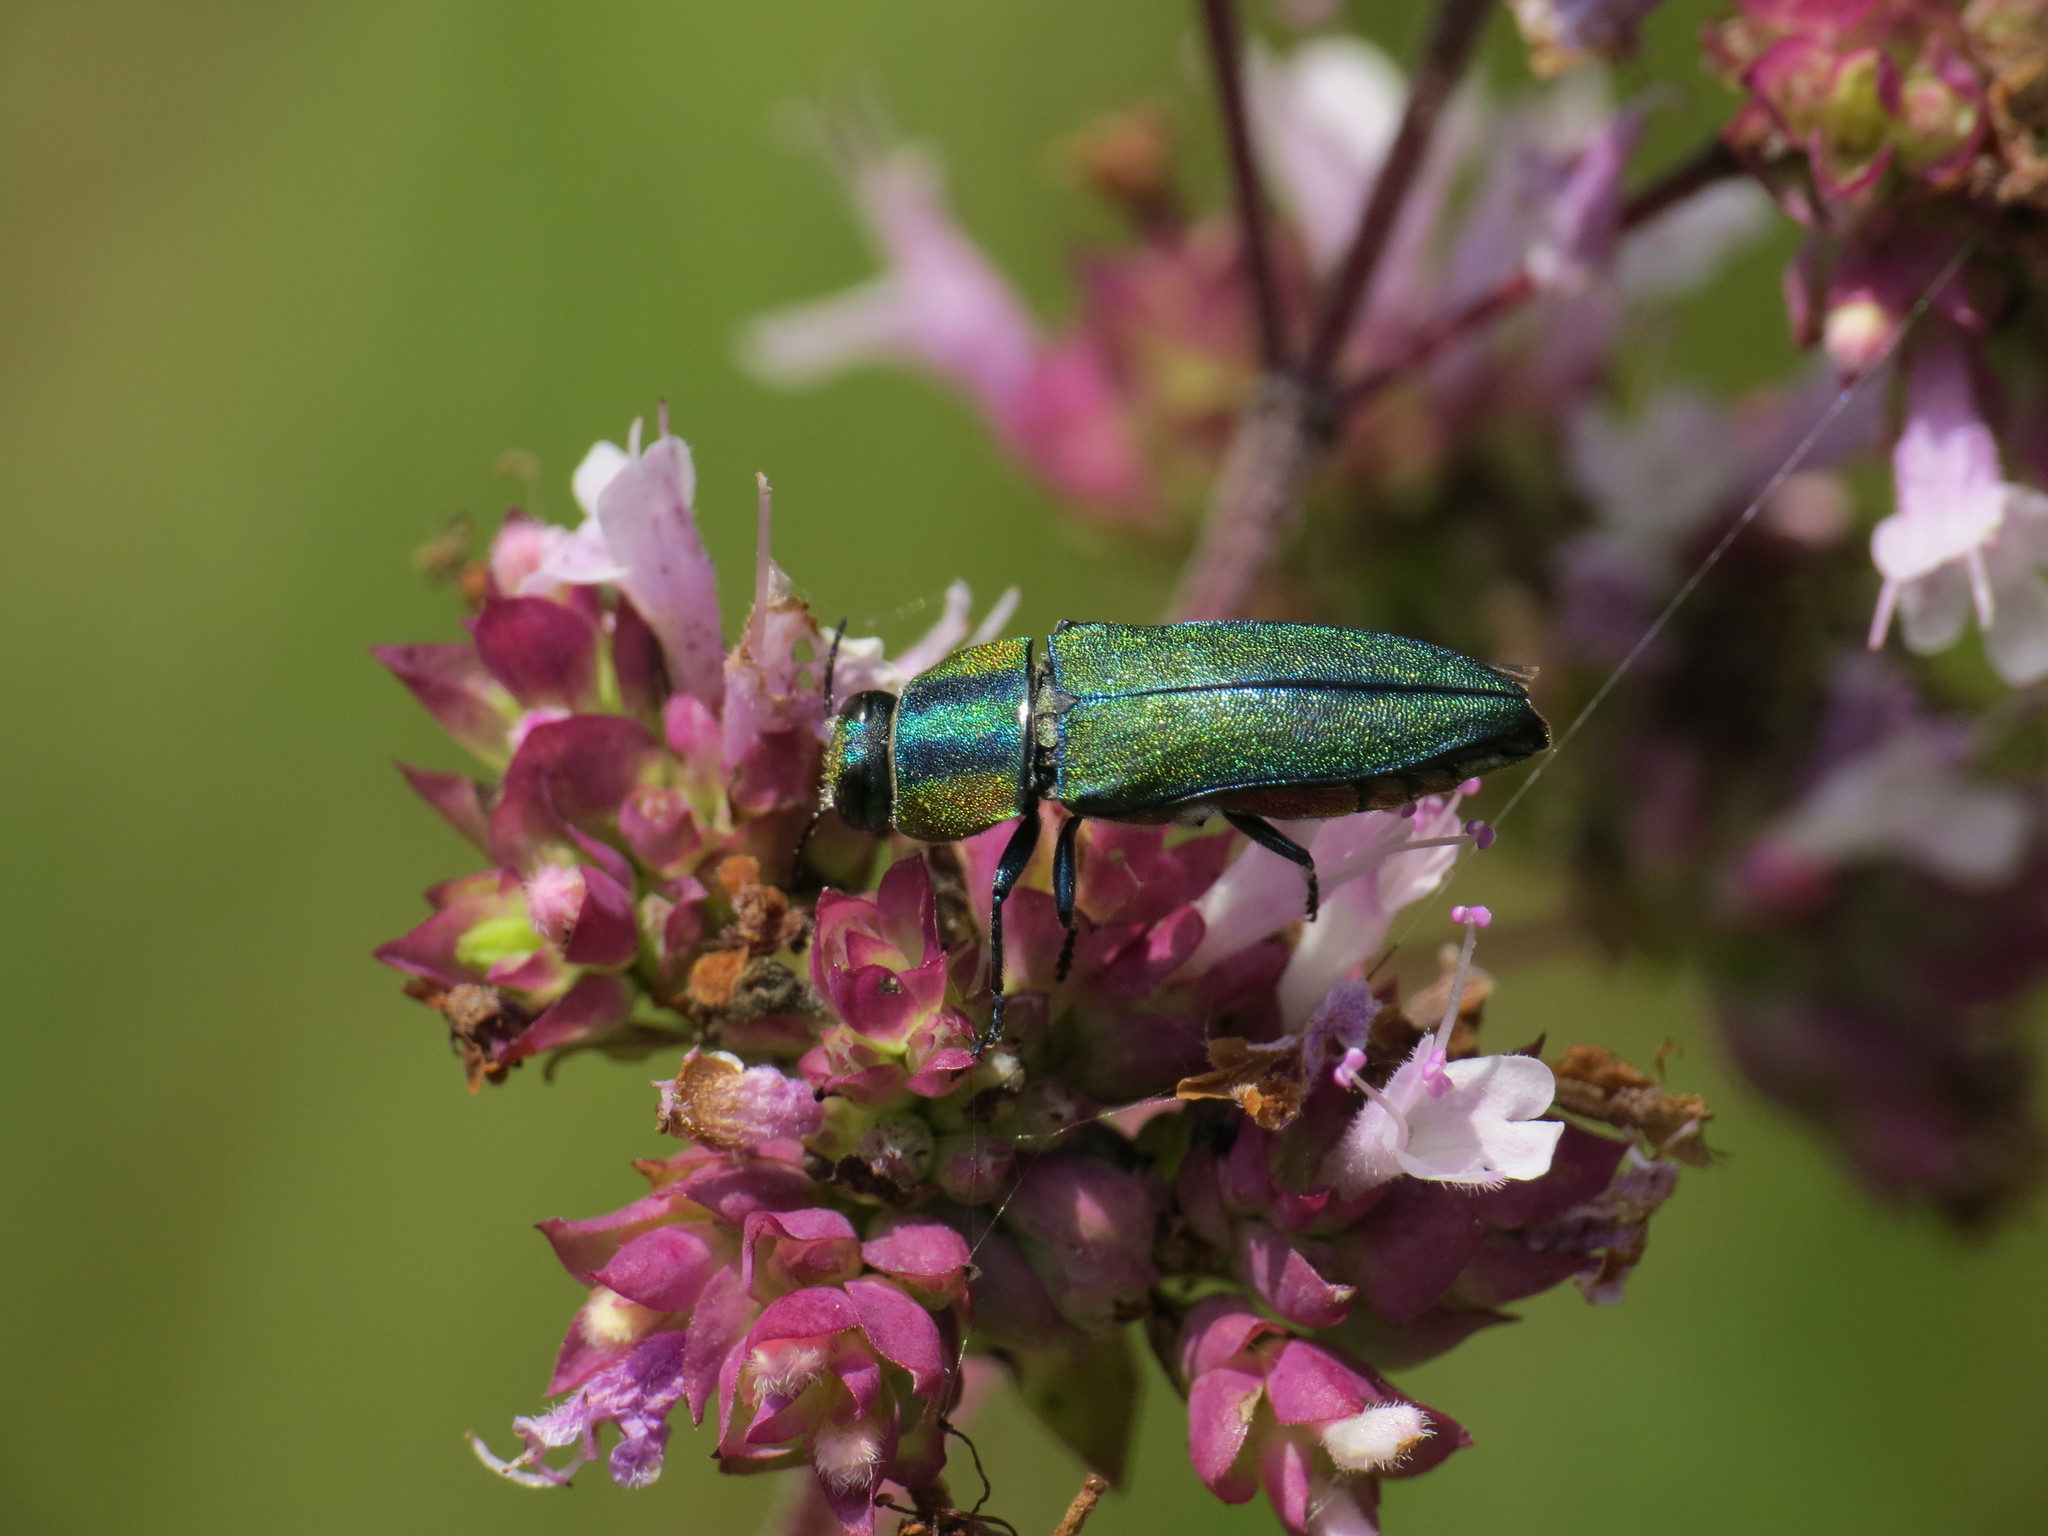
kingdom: Animalia
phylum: Arthropoda
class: Insecta
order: Coleoptera
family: Buprestidae
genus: Anthaxia
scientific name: Anthaxia hungarica
